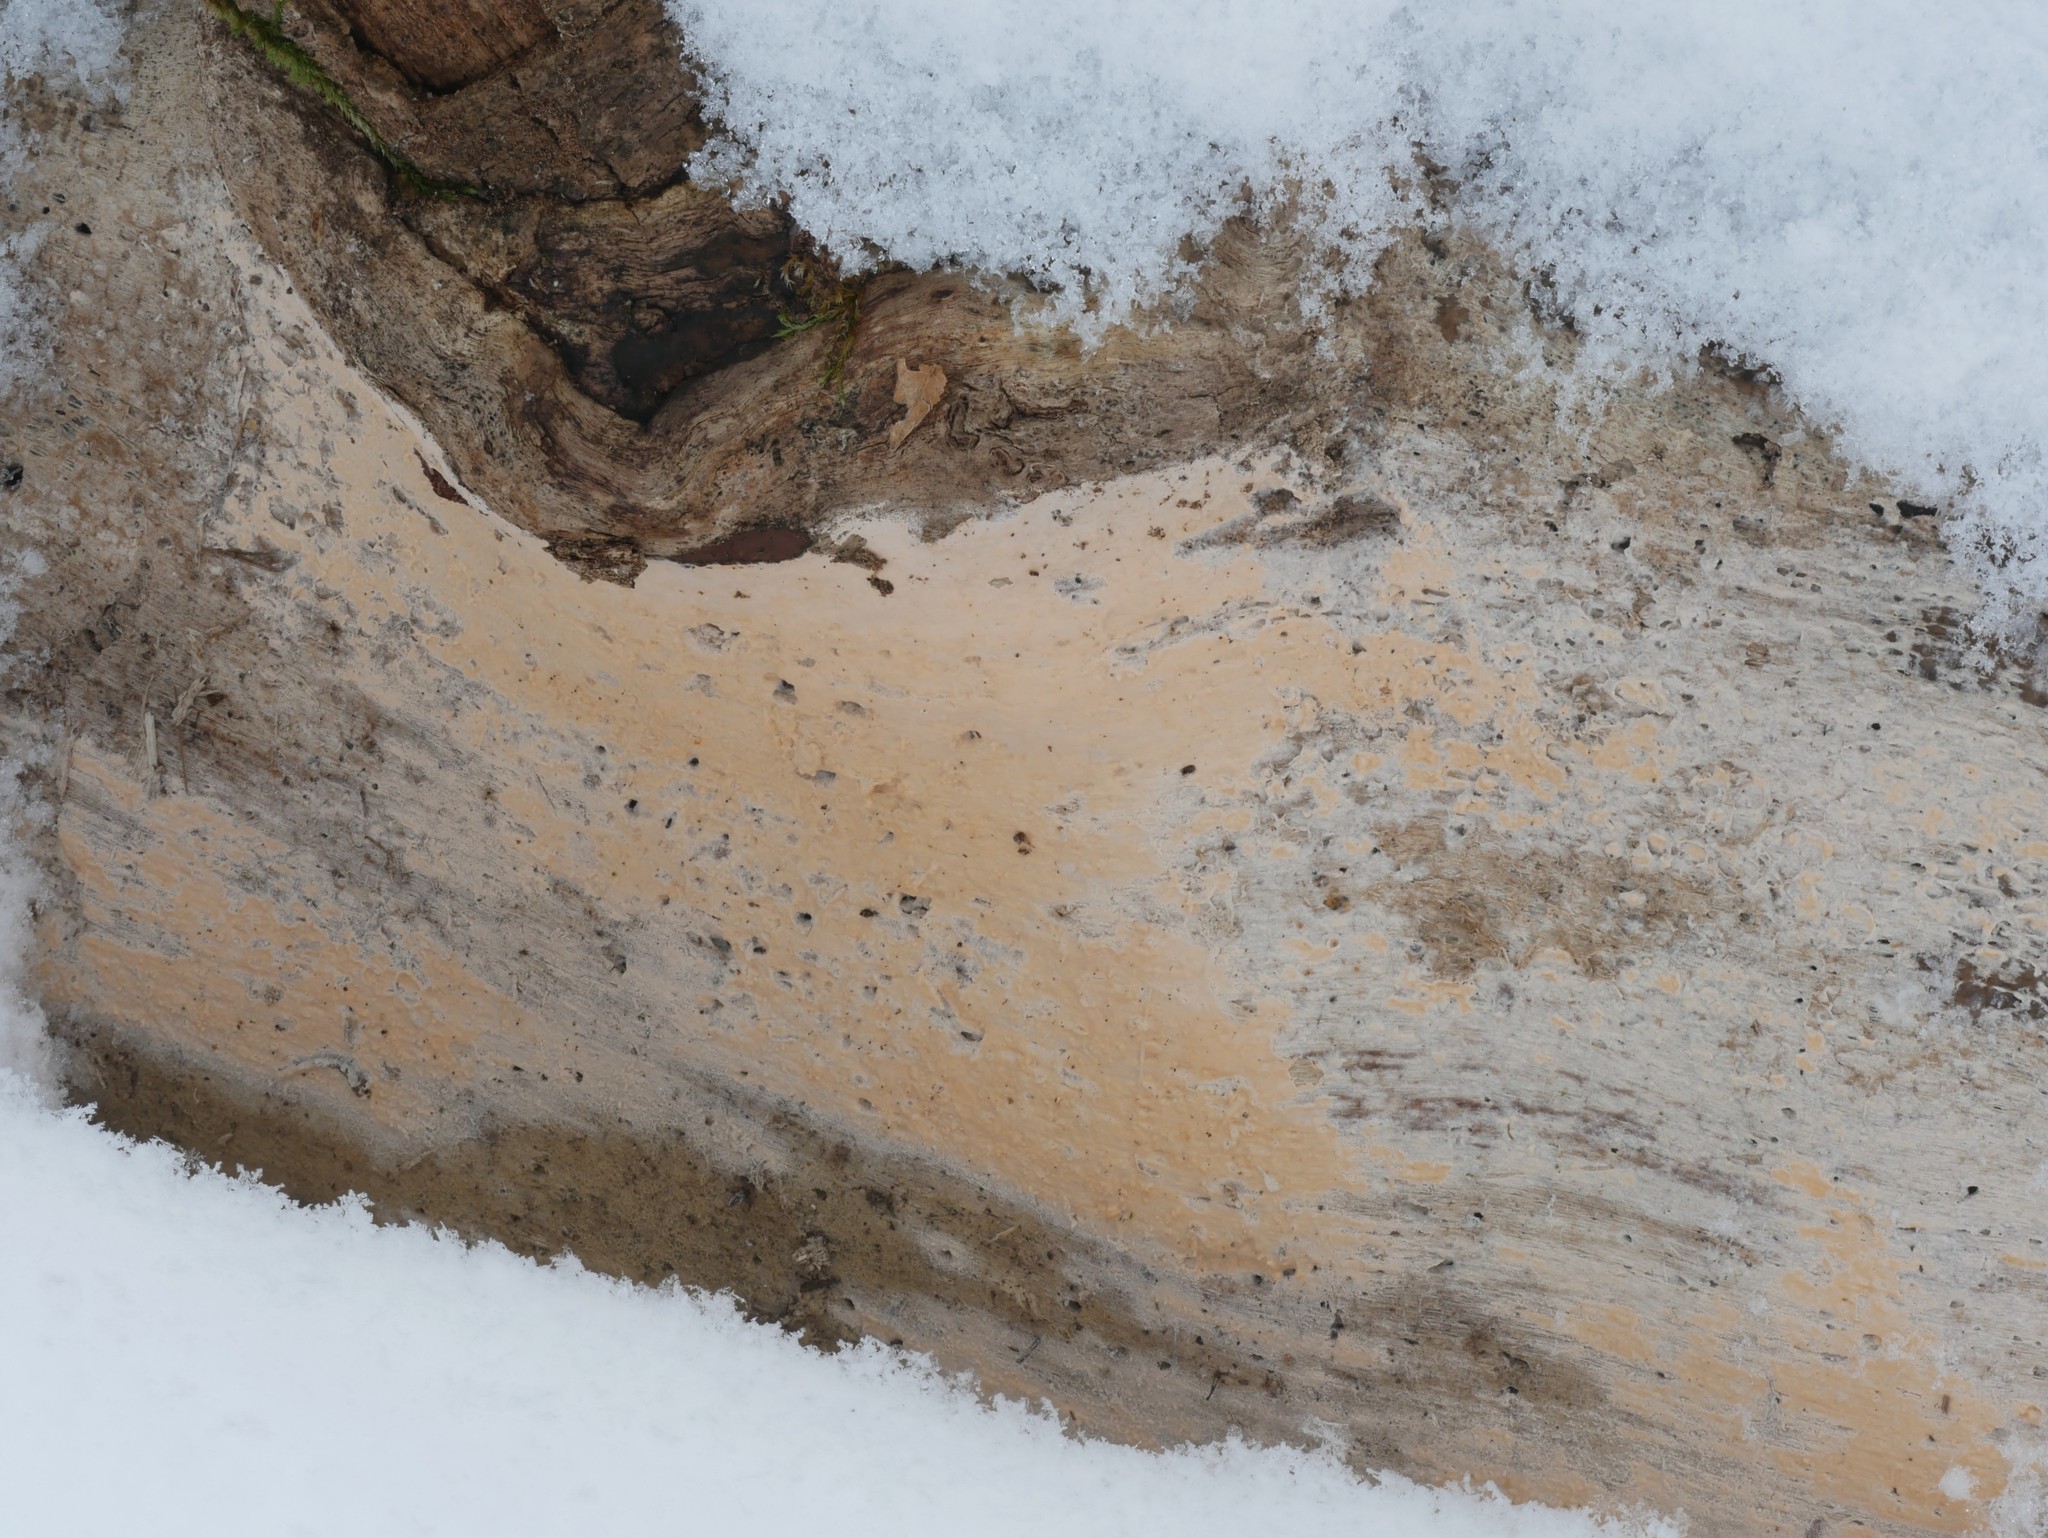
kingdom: Fungi
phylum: Basidiomycota
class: Agaricomycetes
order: Cantharellales
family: Tulasnellaceae
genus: Tulasnella
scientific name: Tulasnella violea
